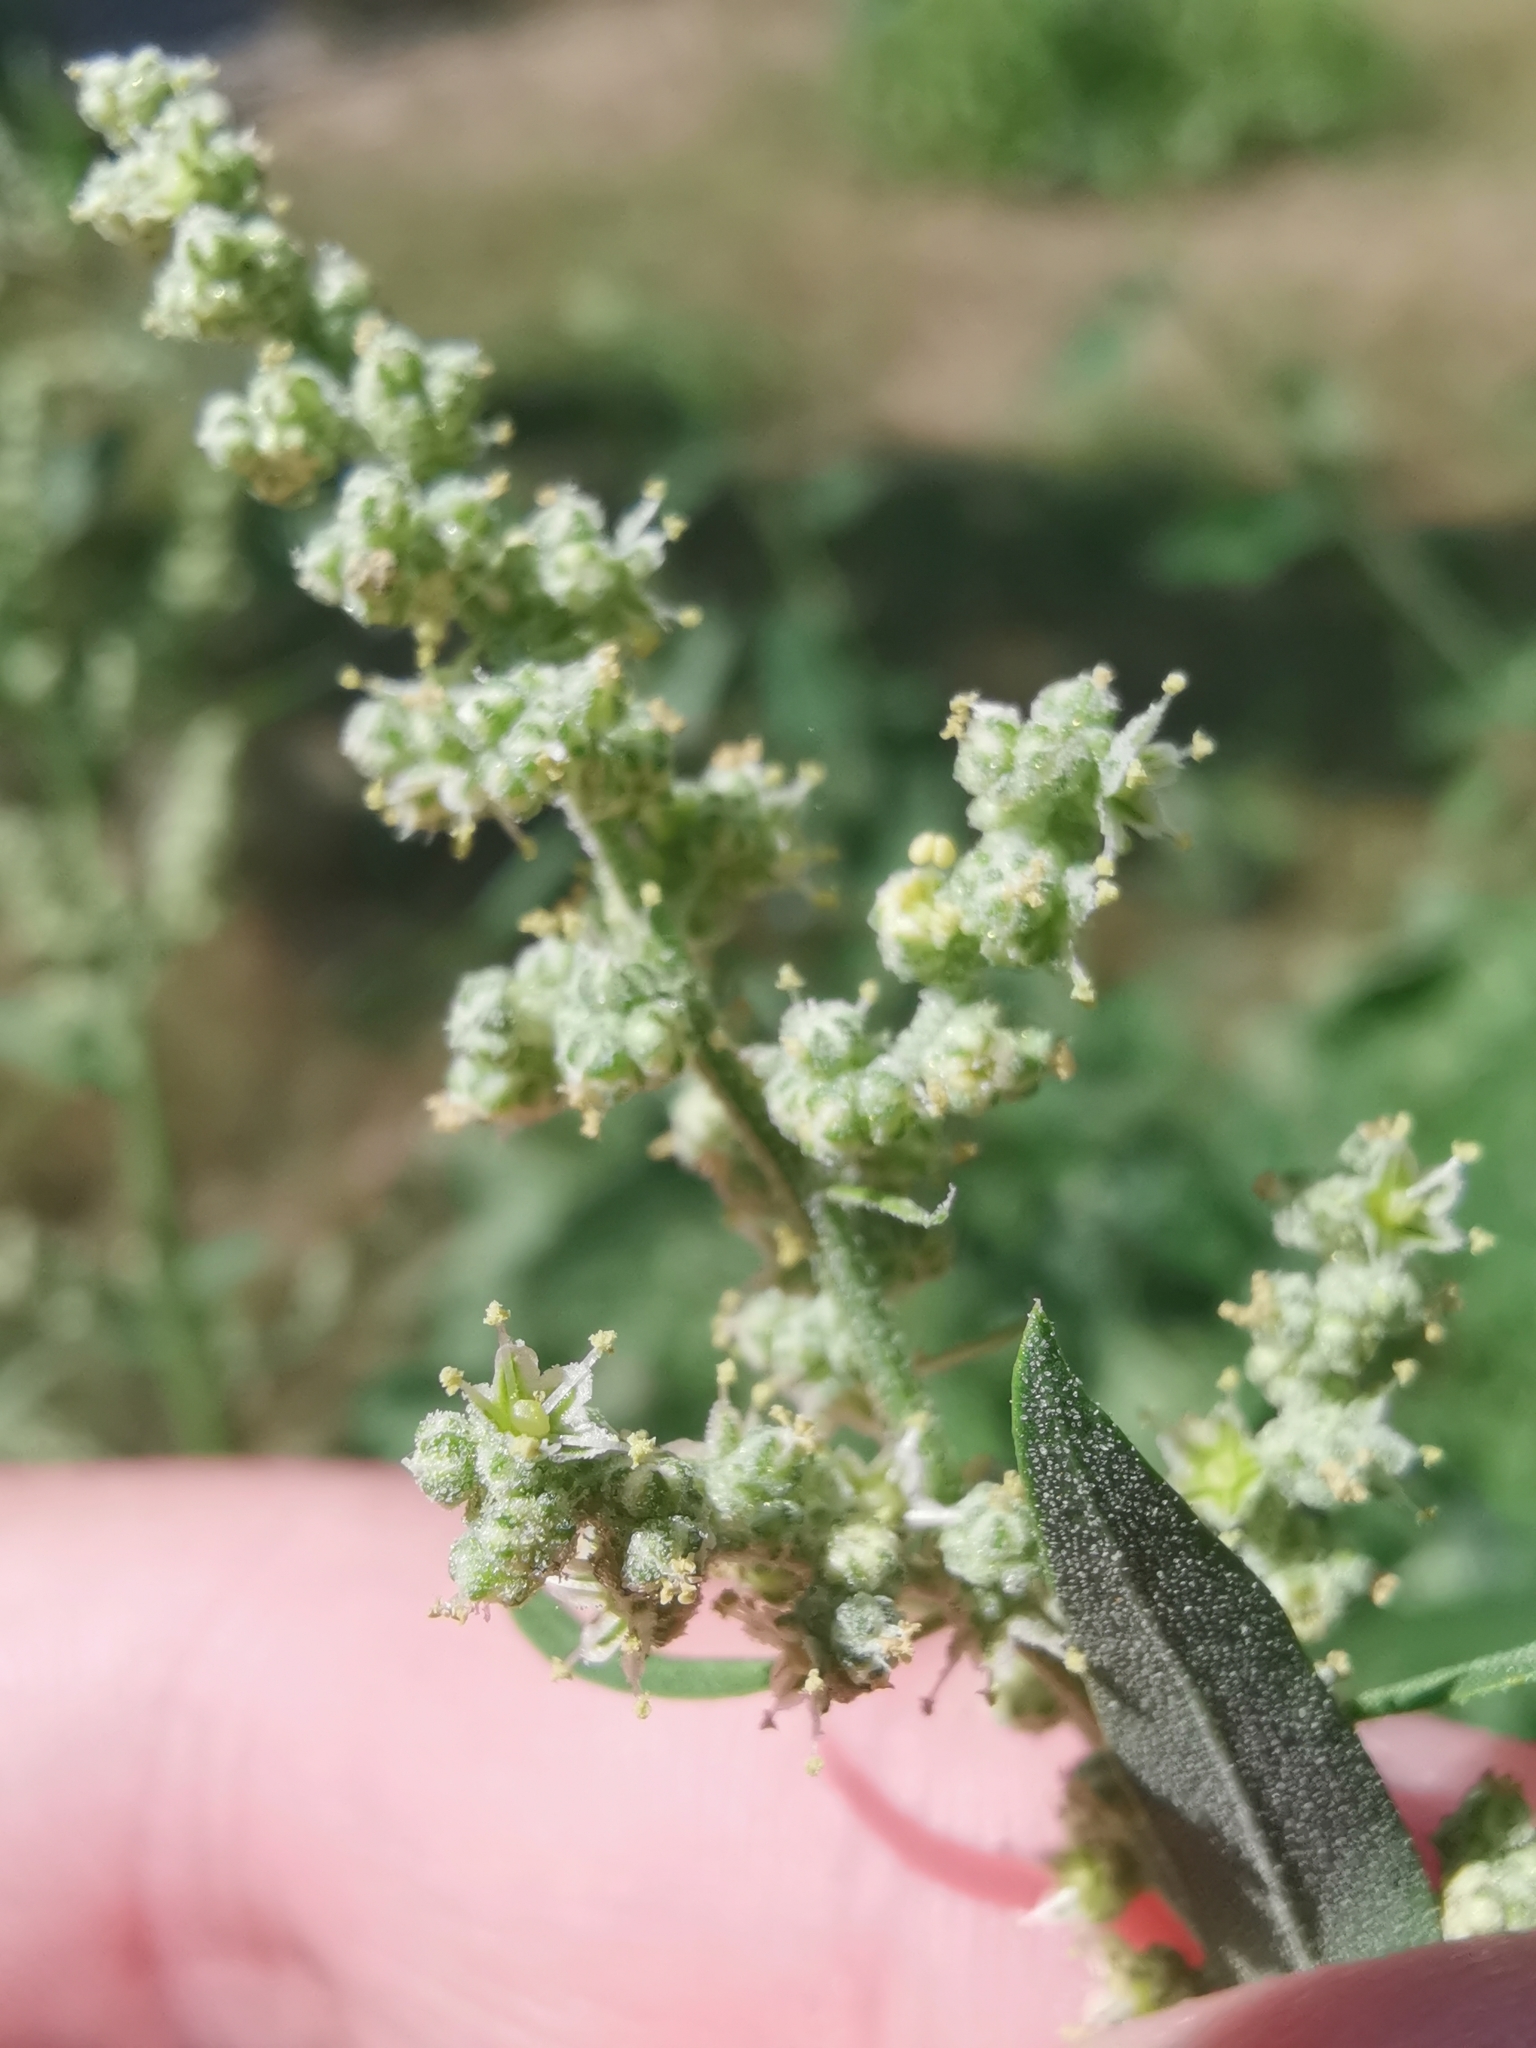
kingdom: Plantae
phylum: Tracheophyta
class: Magnoliopsida
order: Caryophyllales
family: Amaranthaceae
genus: Chenopodium
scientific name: Chenopodium album
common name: Fat-hen
